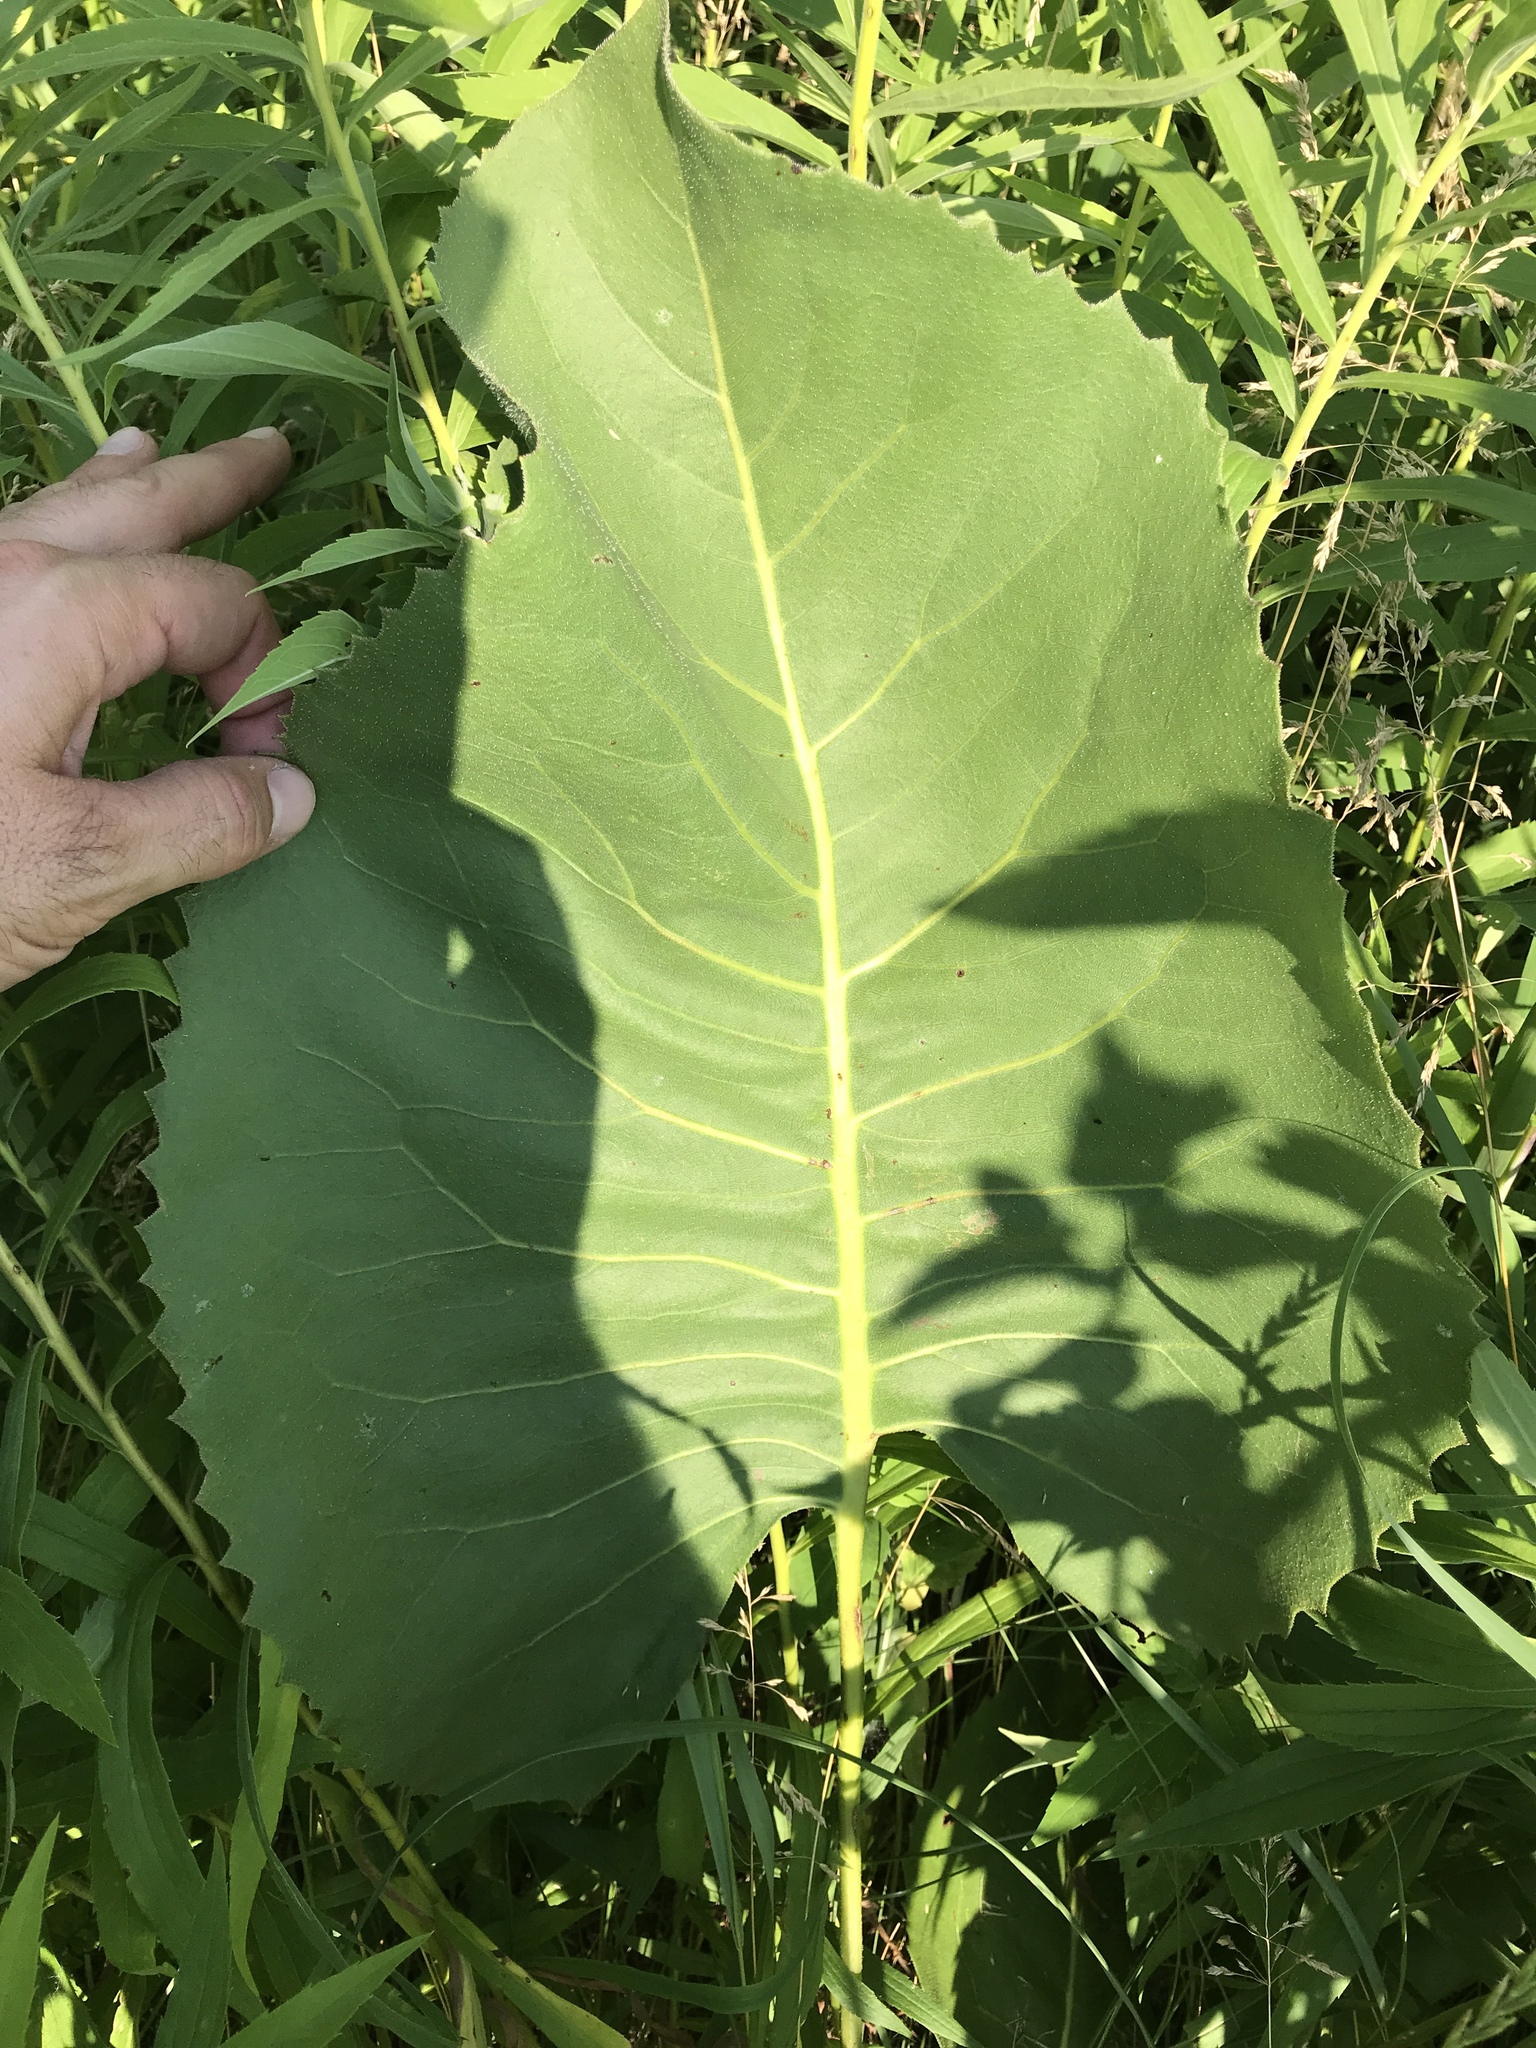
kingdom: Plantae
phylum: Tracheophyta
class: Magnoliopsida
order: Asterales
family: Asteraceae
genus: Silphium
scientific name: Silphium terebinthinaceum
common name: Basal-leaf rosinweed
